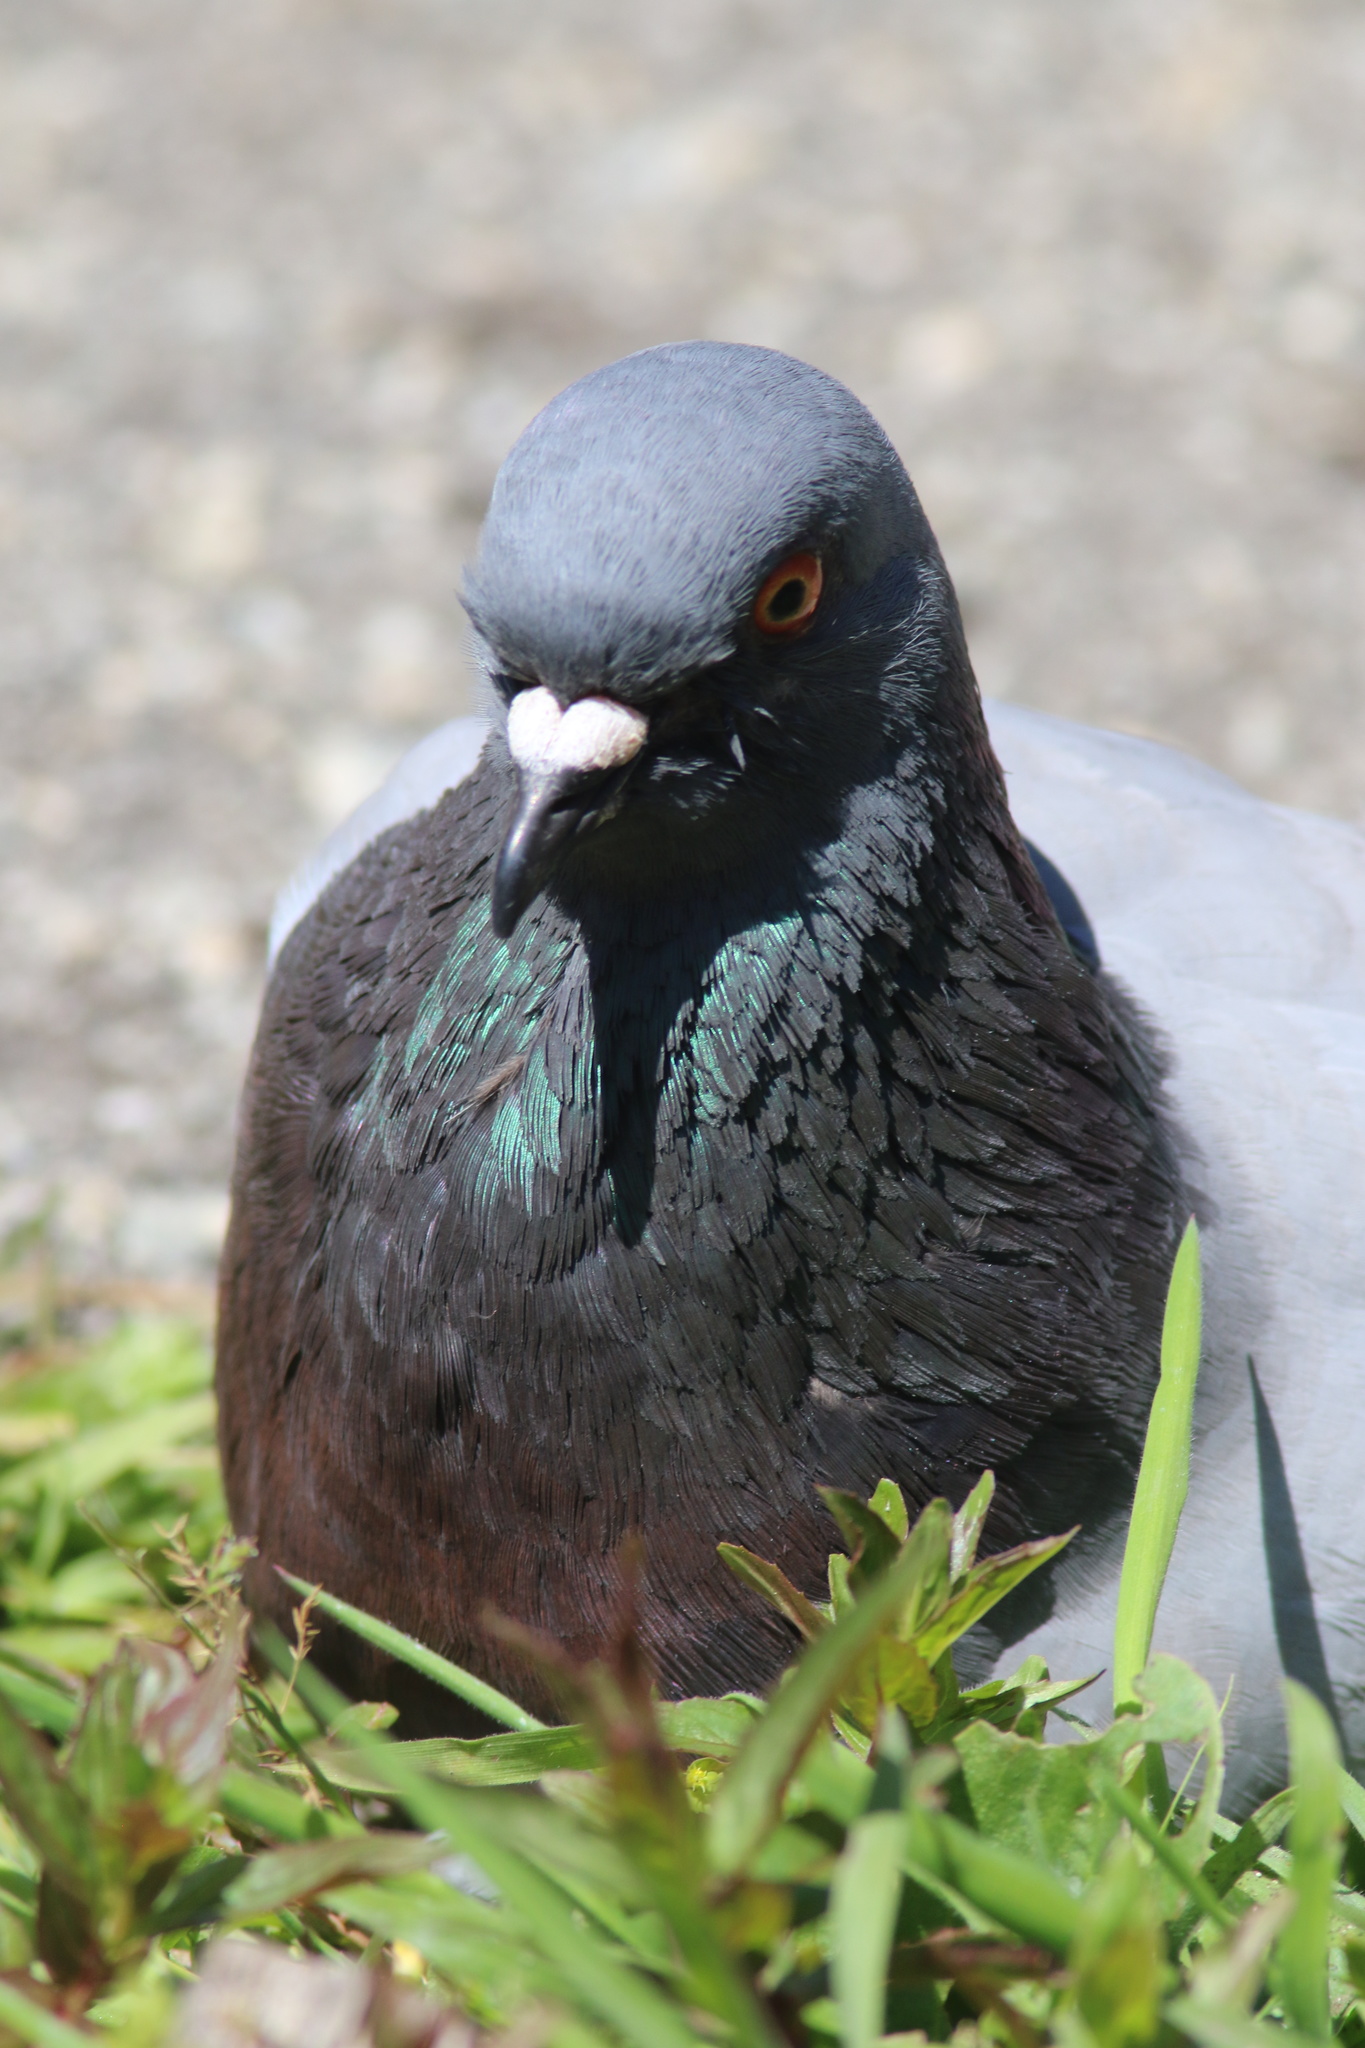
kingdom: Animalia
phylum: Chordata
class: Aves
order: Columbiformes
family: Columbidae
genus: Columba
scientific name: Columba livia
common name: Rock pigeon
